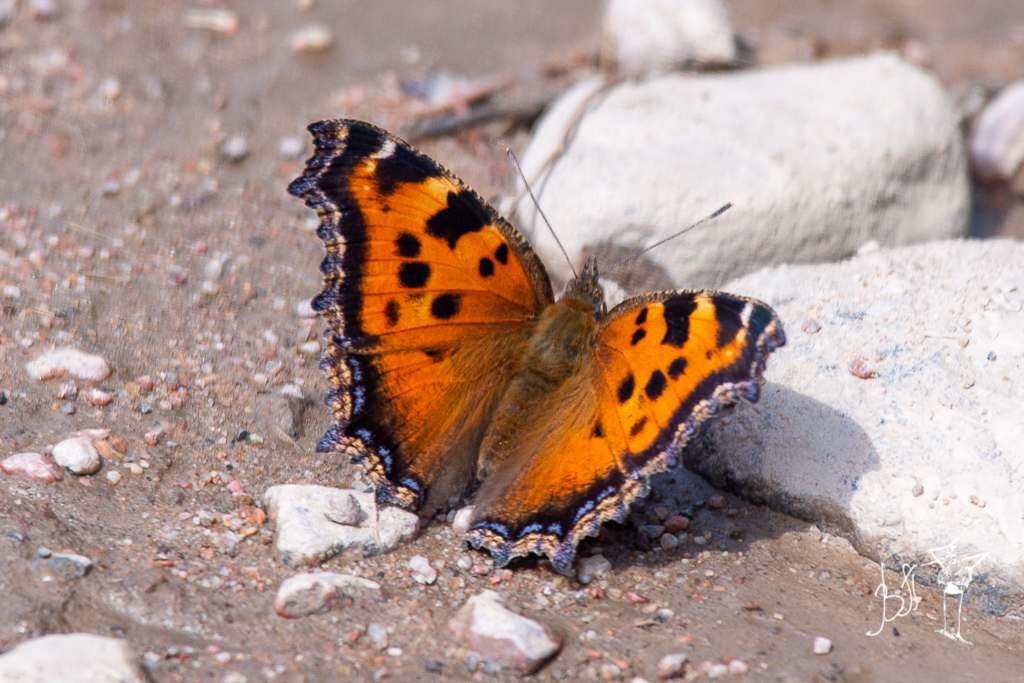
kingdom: Animalia
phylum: Arthropoda
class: Insecta
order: Lepidoptera
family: Nymphalidae
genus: Nymphalis
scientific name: Nymphalis xanthomelas
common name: Scarce tortoiseshell
